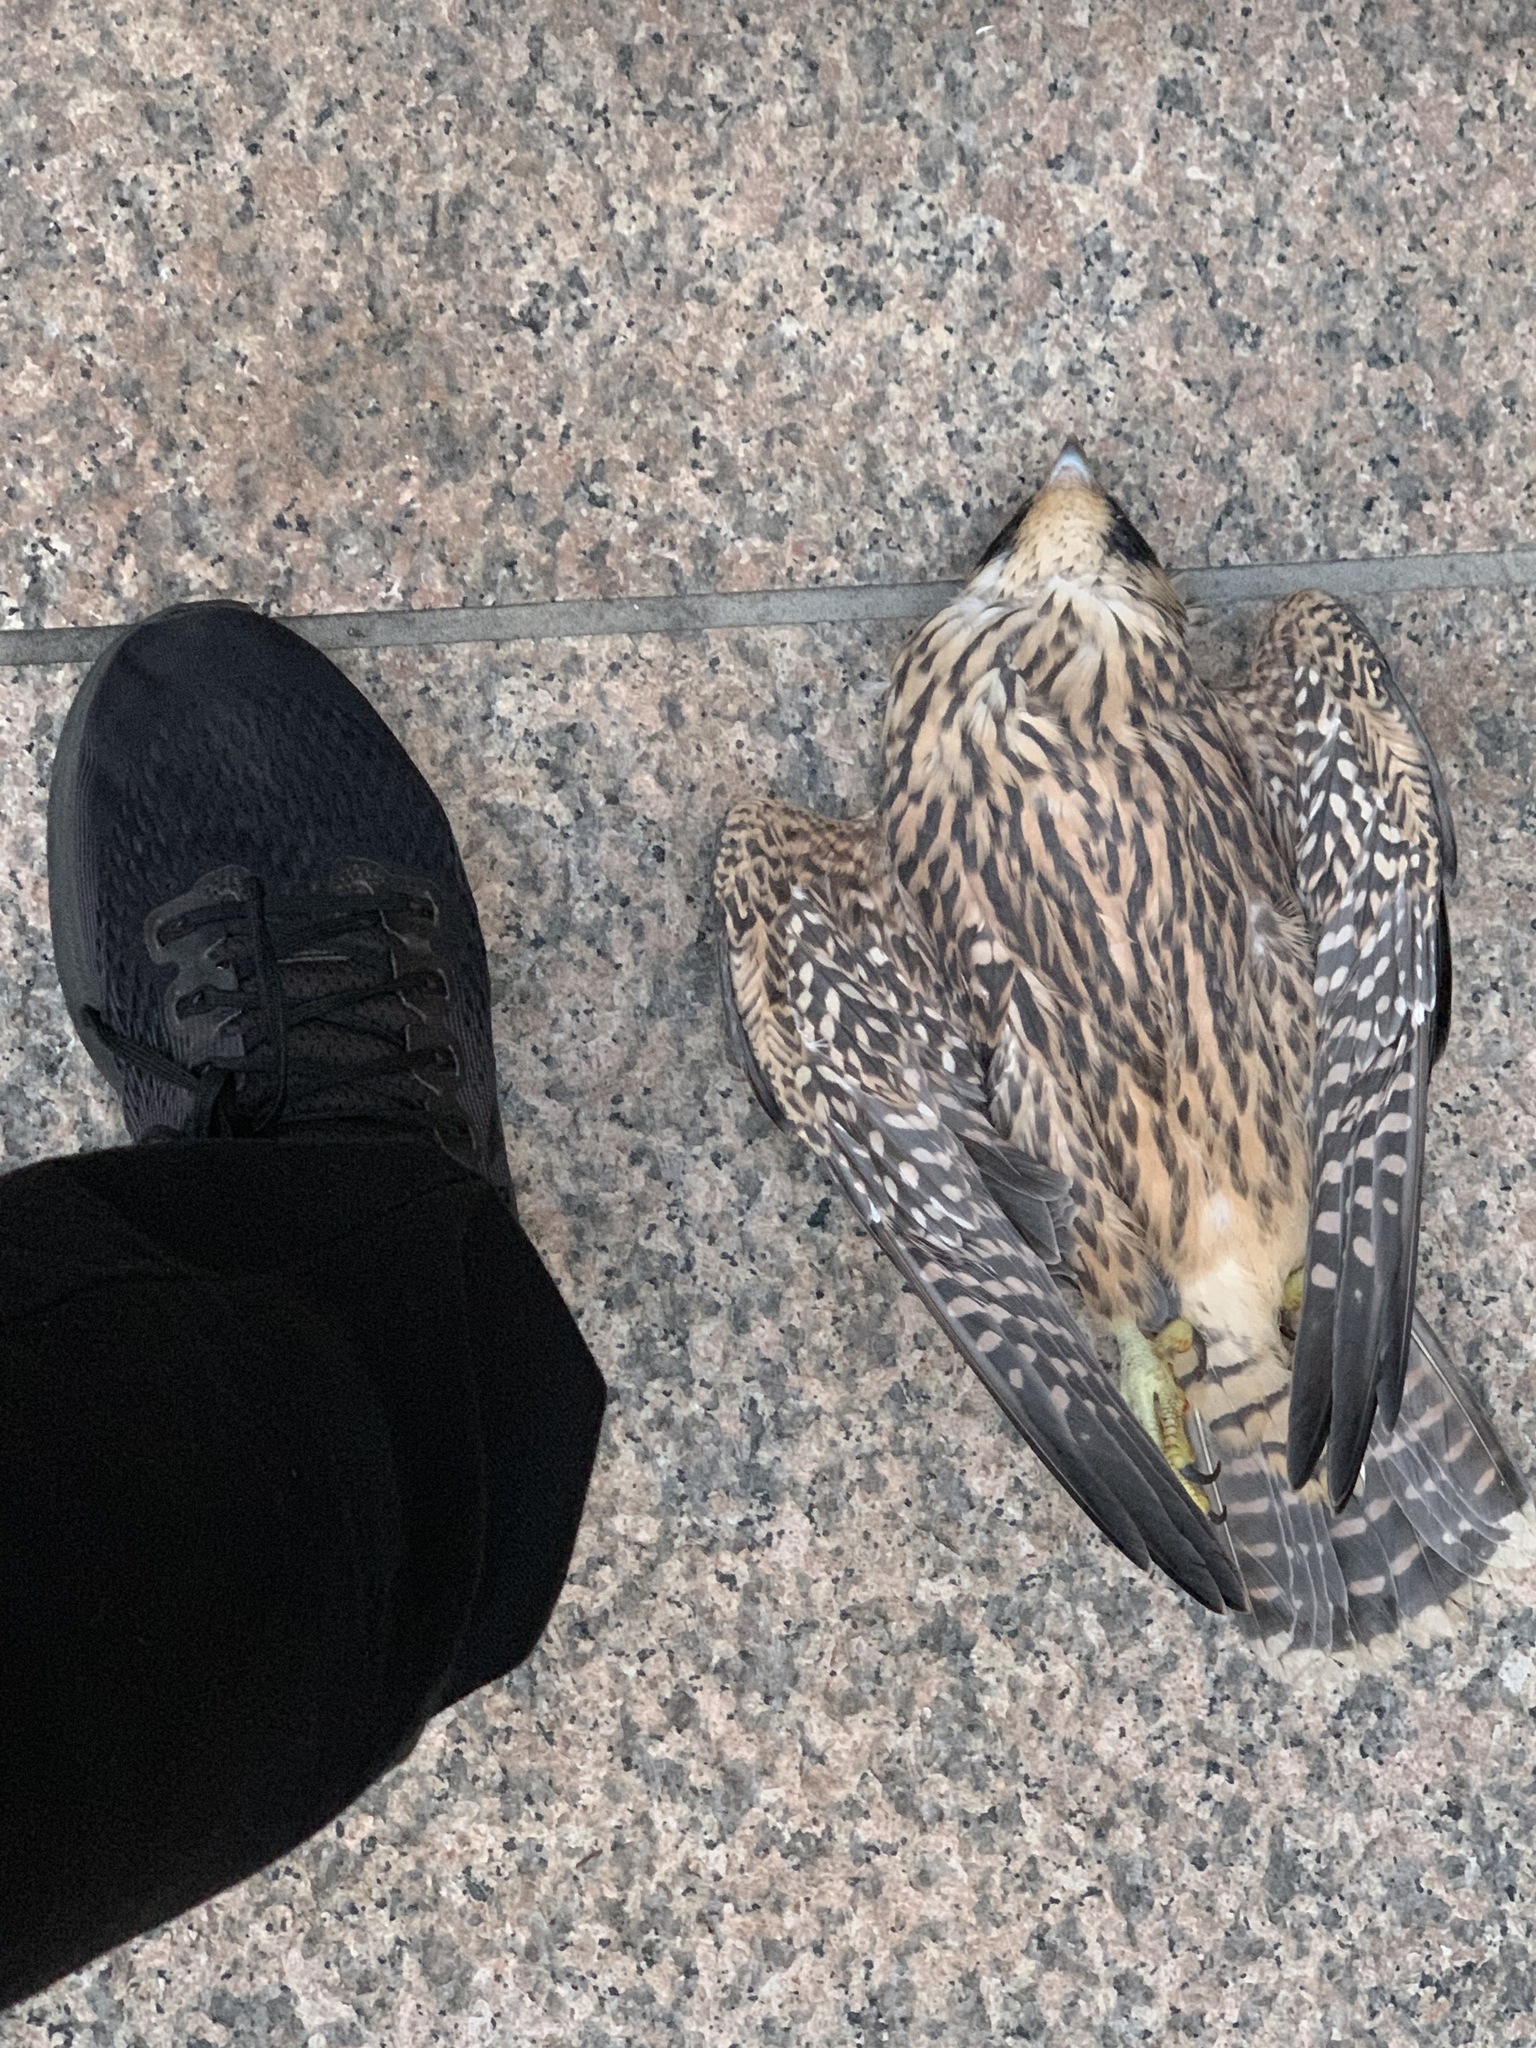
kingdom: Animalia
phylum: Chordata
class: Aves
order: Falconiformes
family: Falconidae
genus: Falco
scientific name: Falco peregrinus
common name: Peregrine falcon
